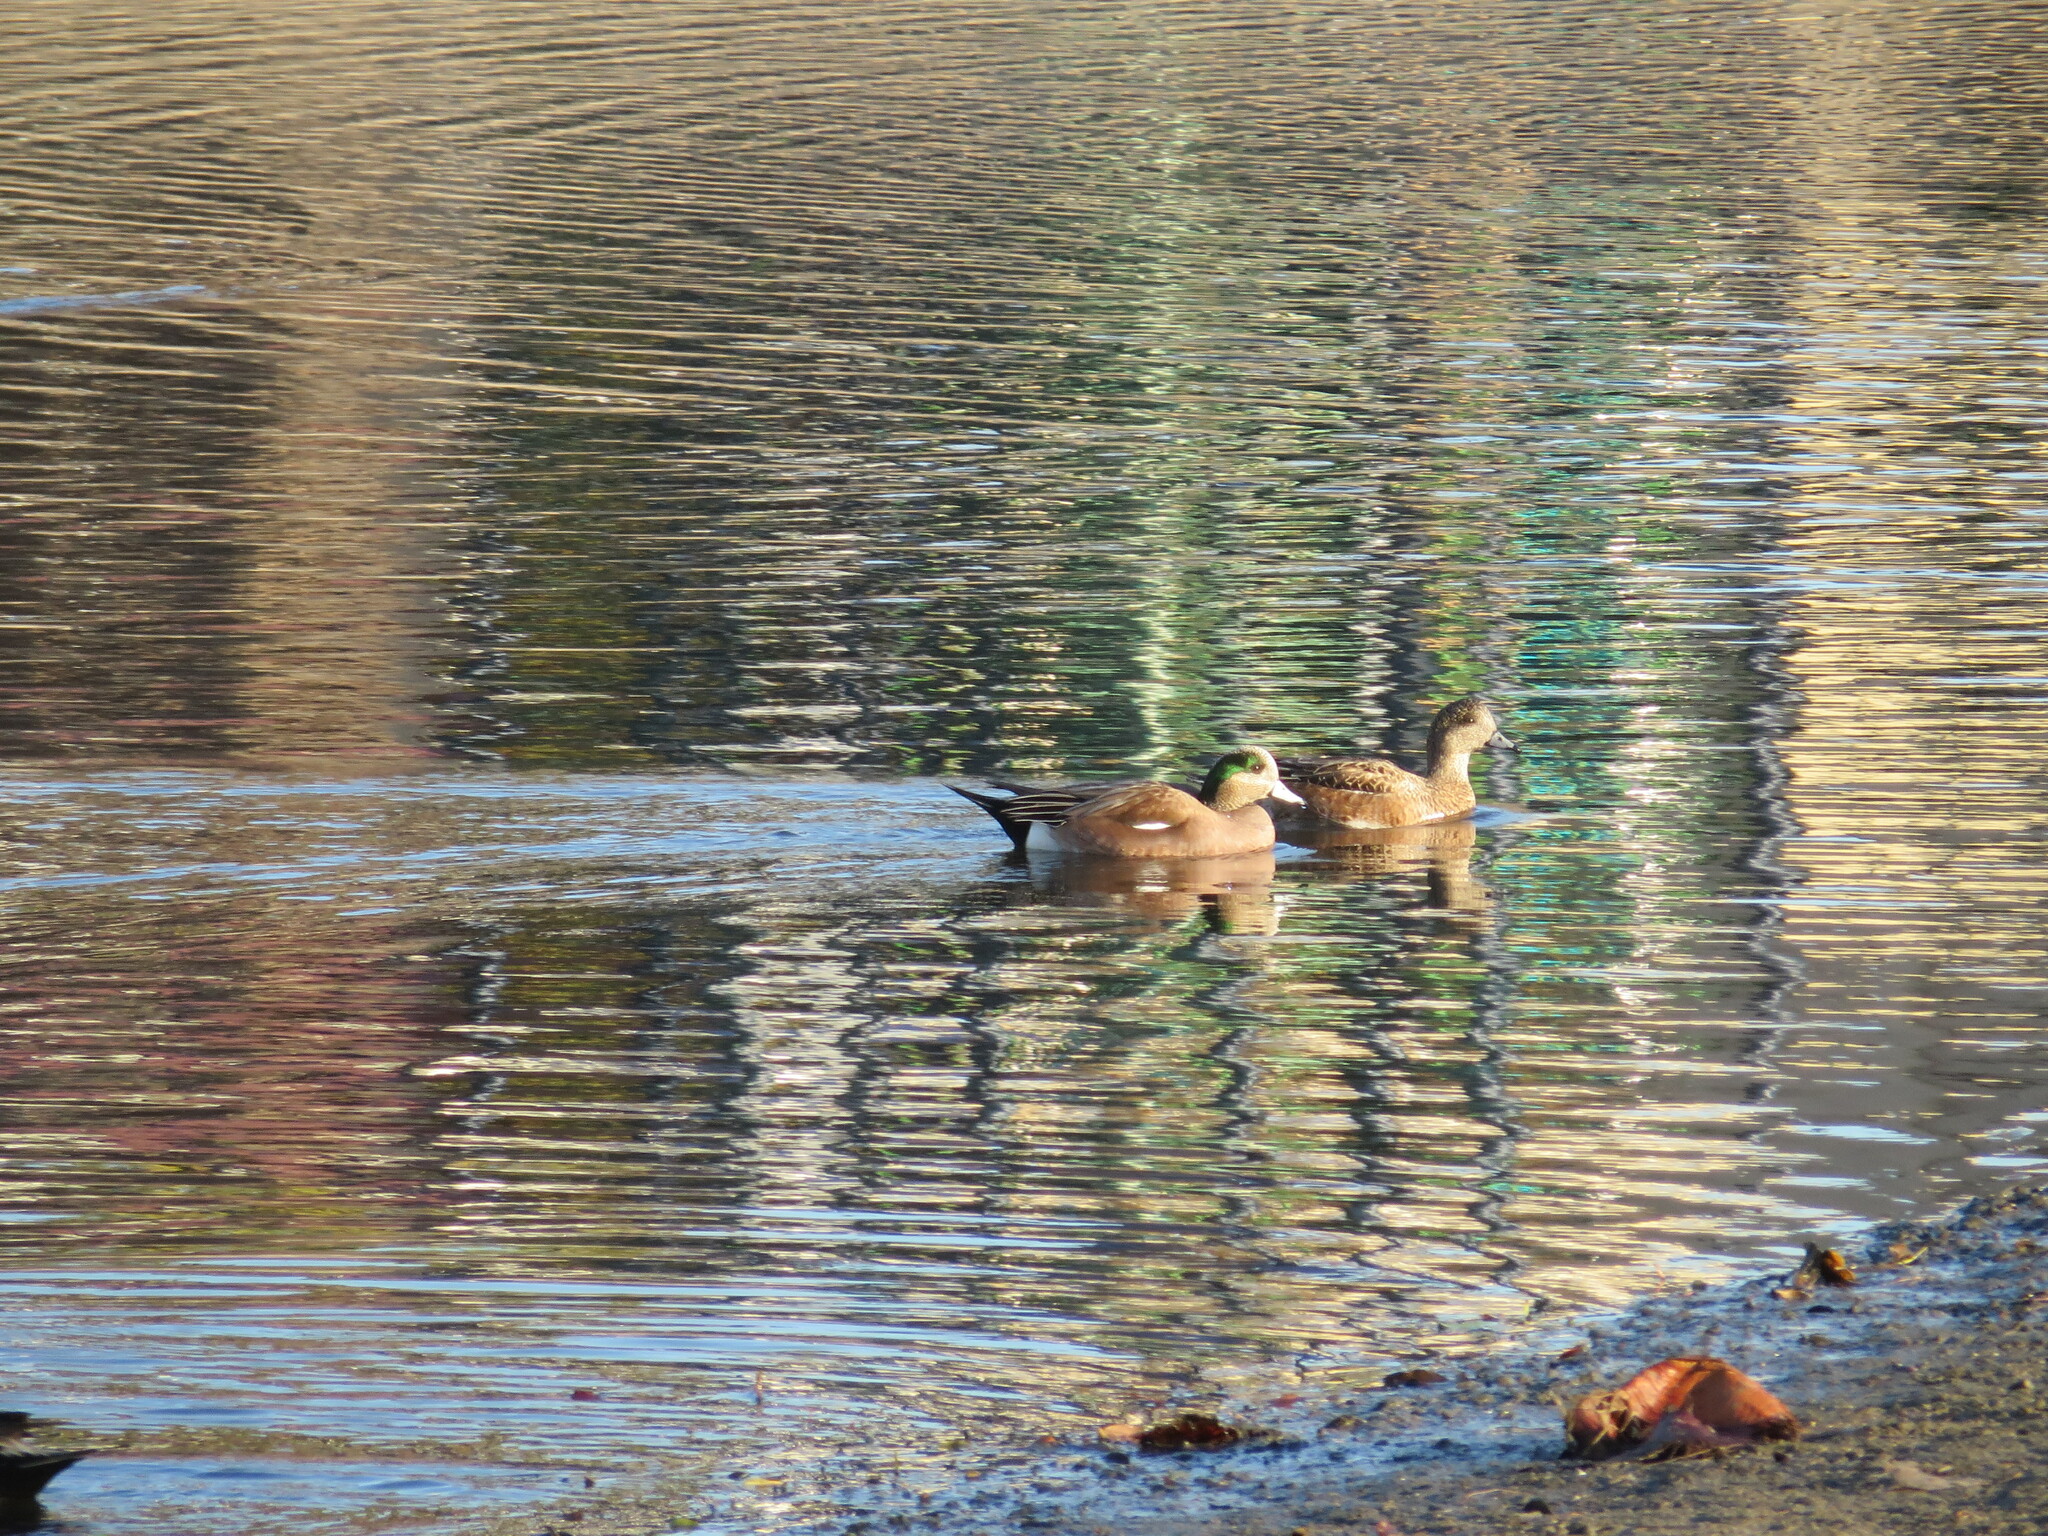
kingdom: Animalia
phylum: Chordata
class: Aves
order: Anseriformes
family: Anatidae
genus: Mareca
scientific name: Mareca americana
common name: American wigeon
